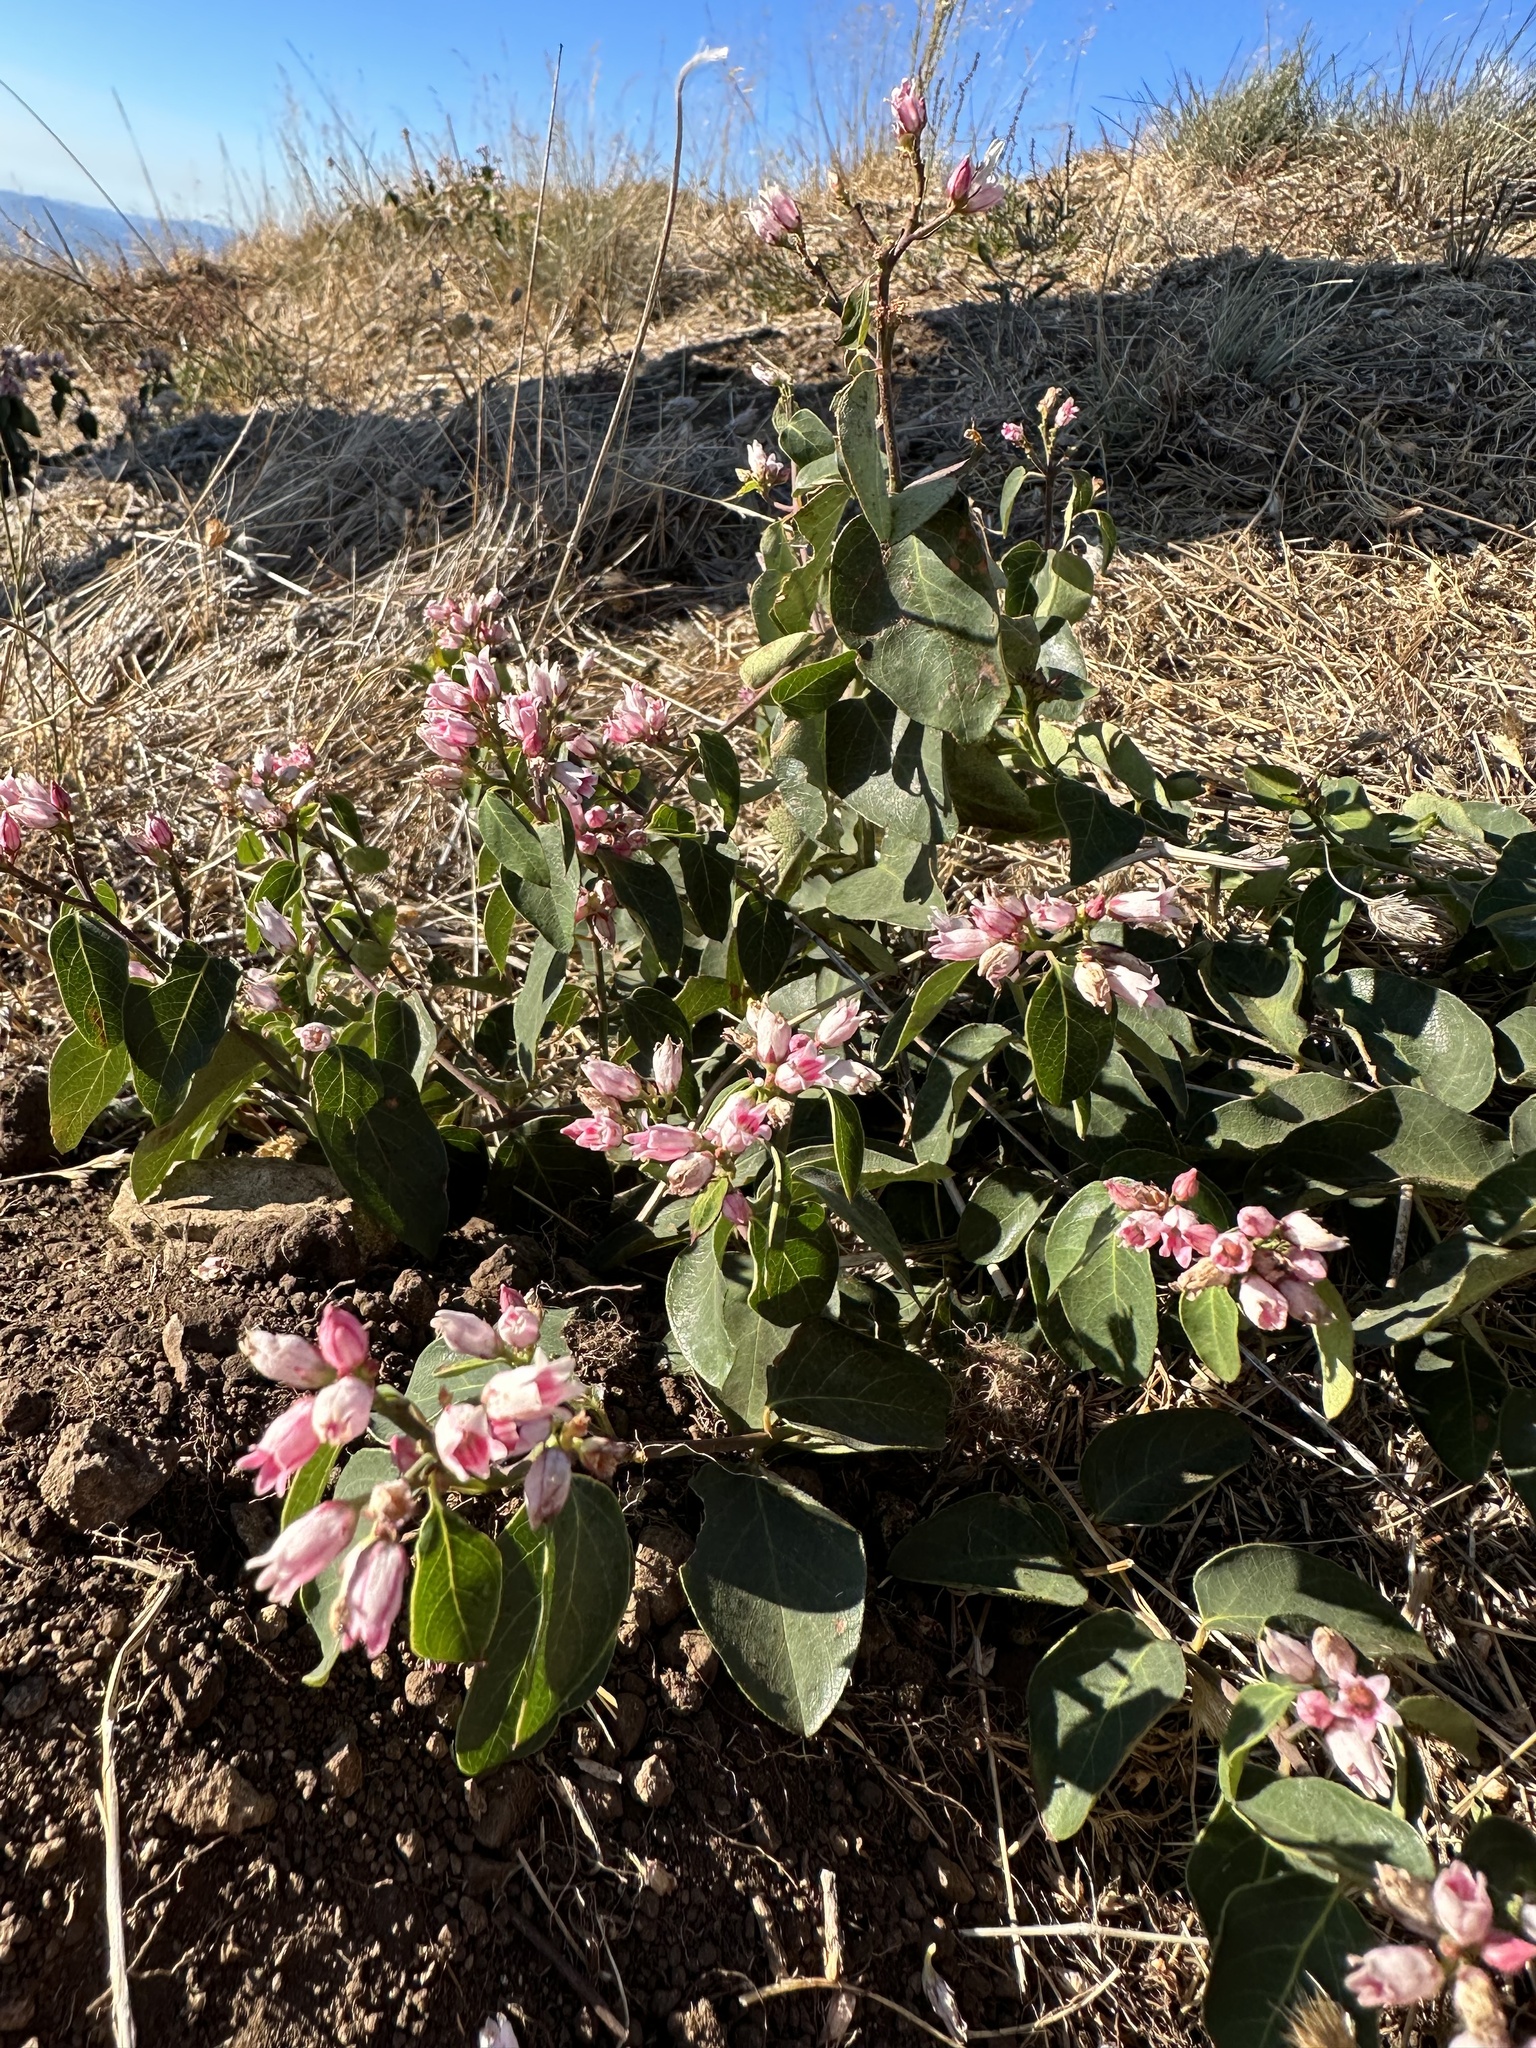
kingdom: Plantae
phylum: Tracheophyta
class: Magnoliopsida
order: Gentianales
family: Apocynaceae
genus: Apocynum
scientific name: Apocynum androsaemifolium
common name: Spreading dogbane
